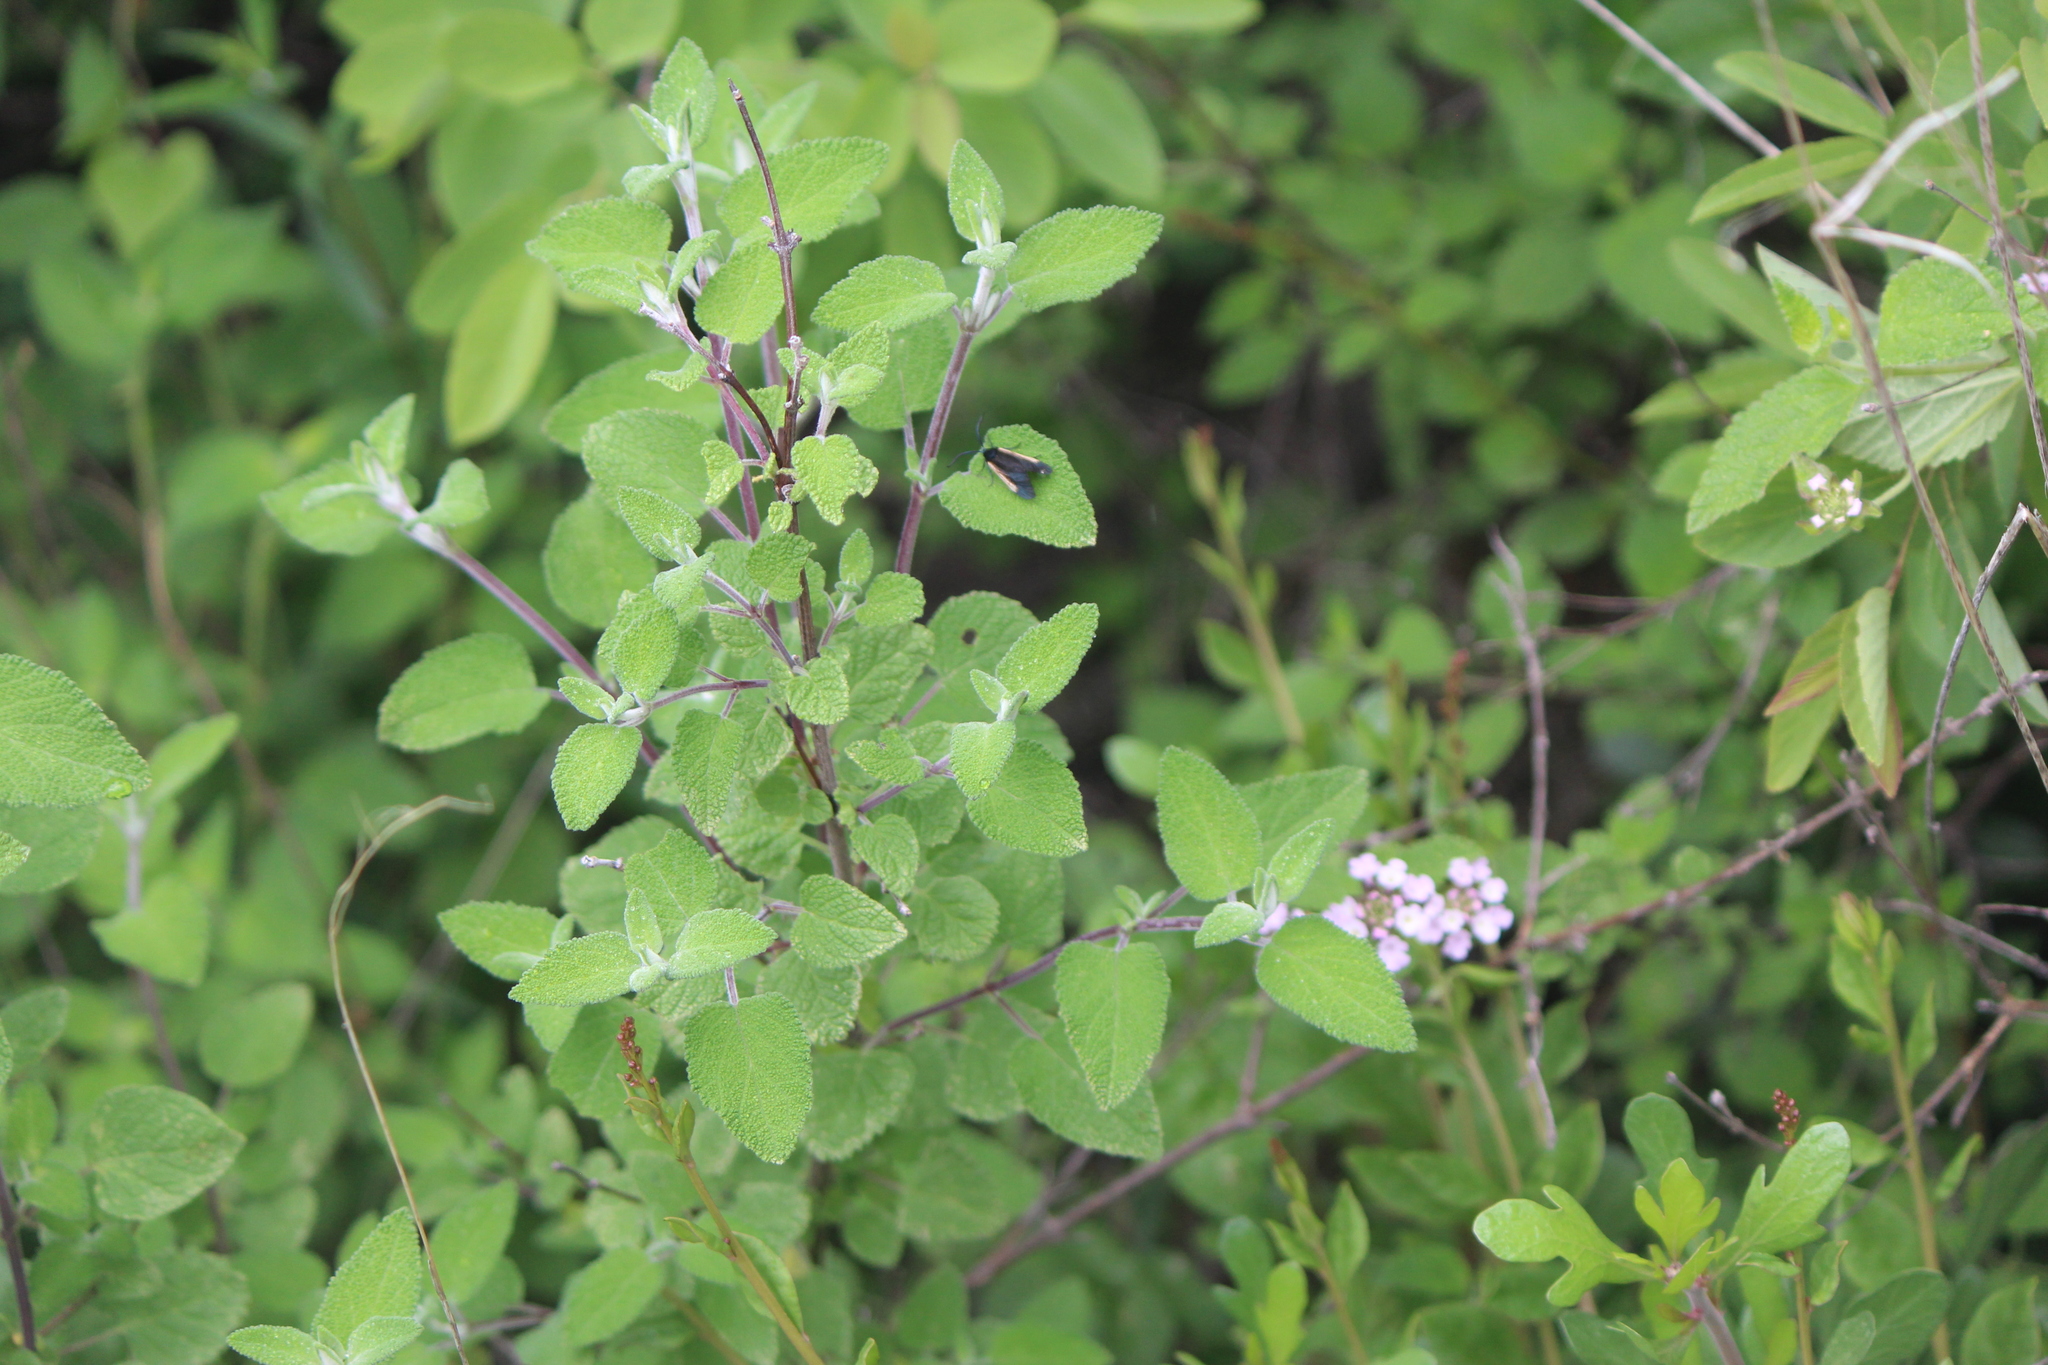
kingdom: Plantae
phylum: Tracheophyta
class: Magnoliopsida
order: Lamiales
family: Verbenaceae
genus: Lantana
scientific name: Lantana velutina
